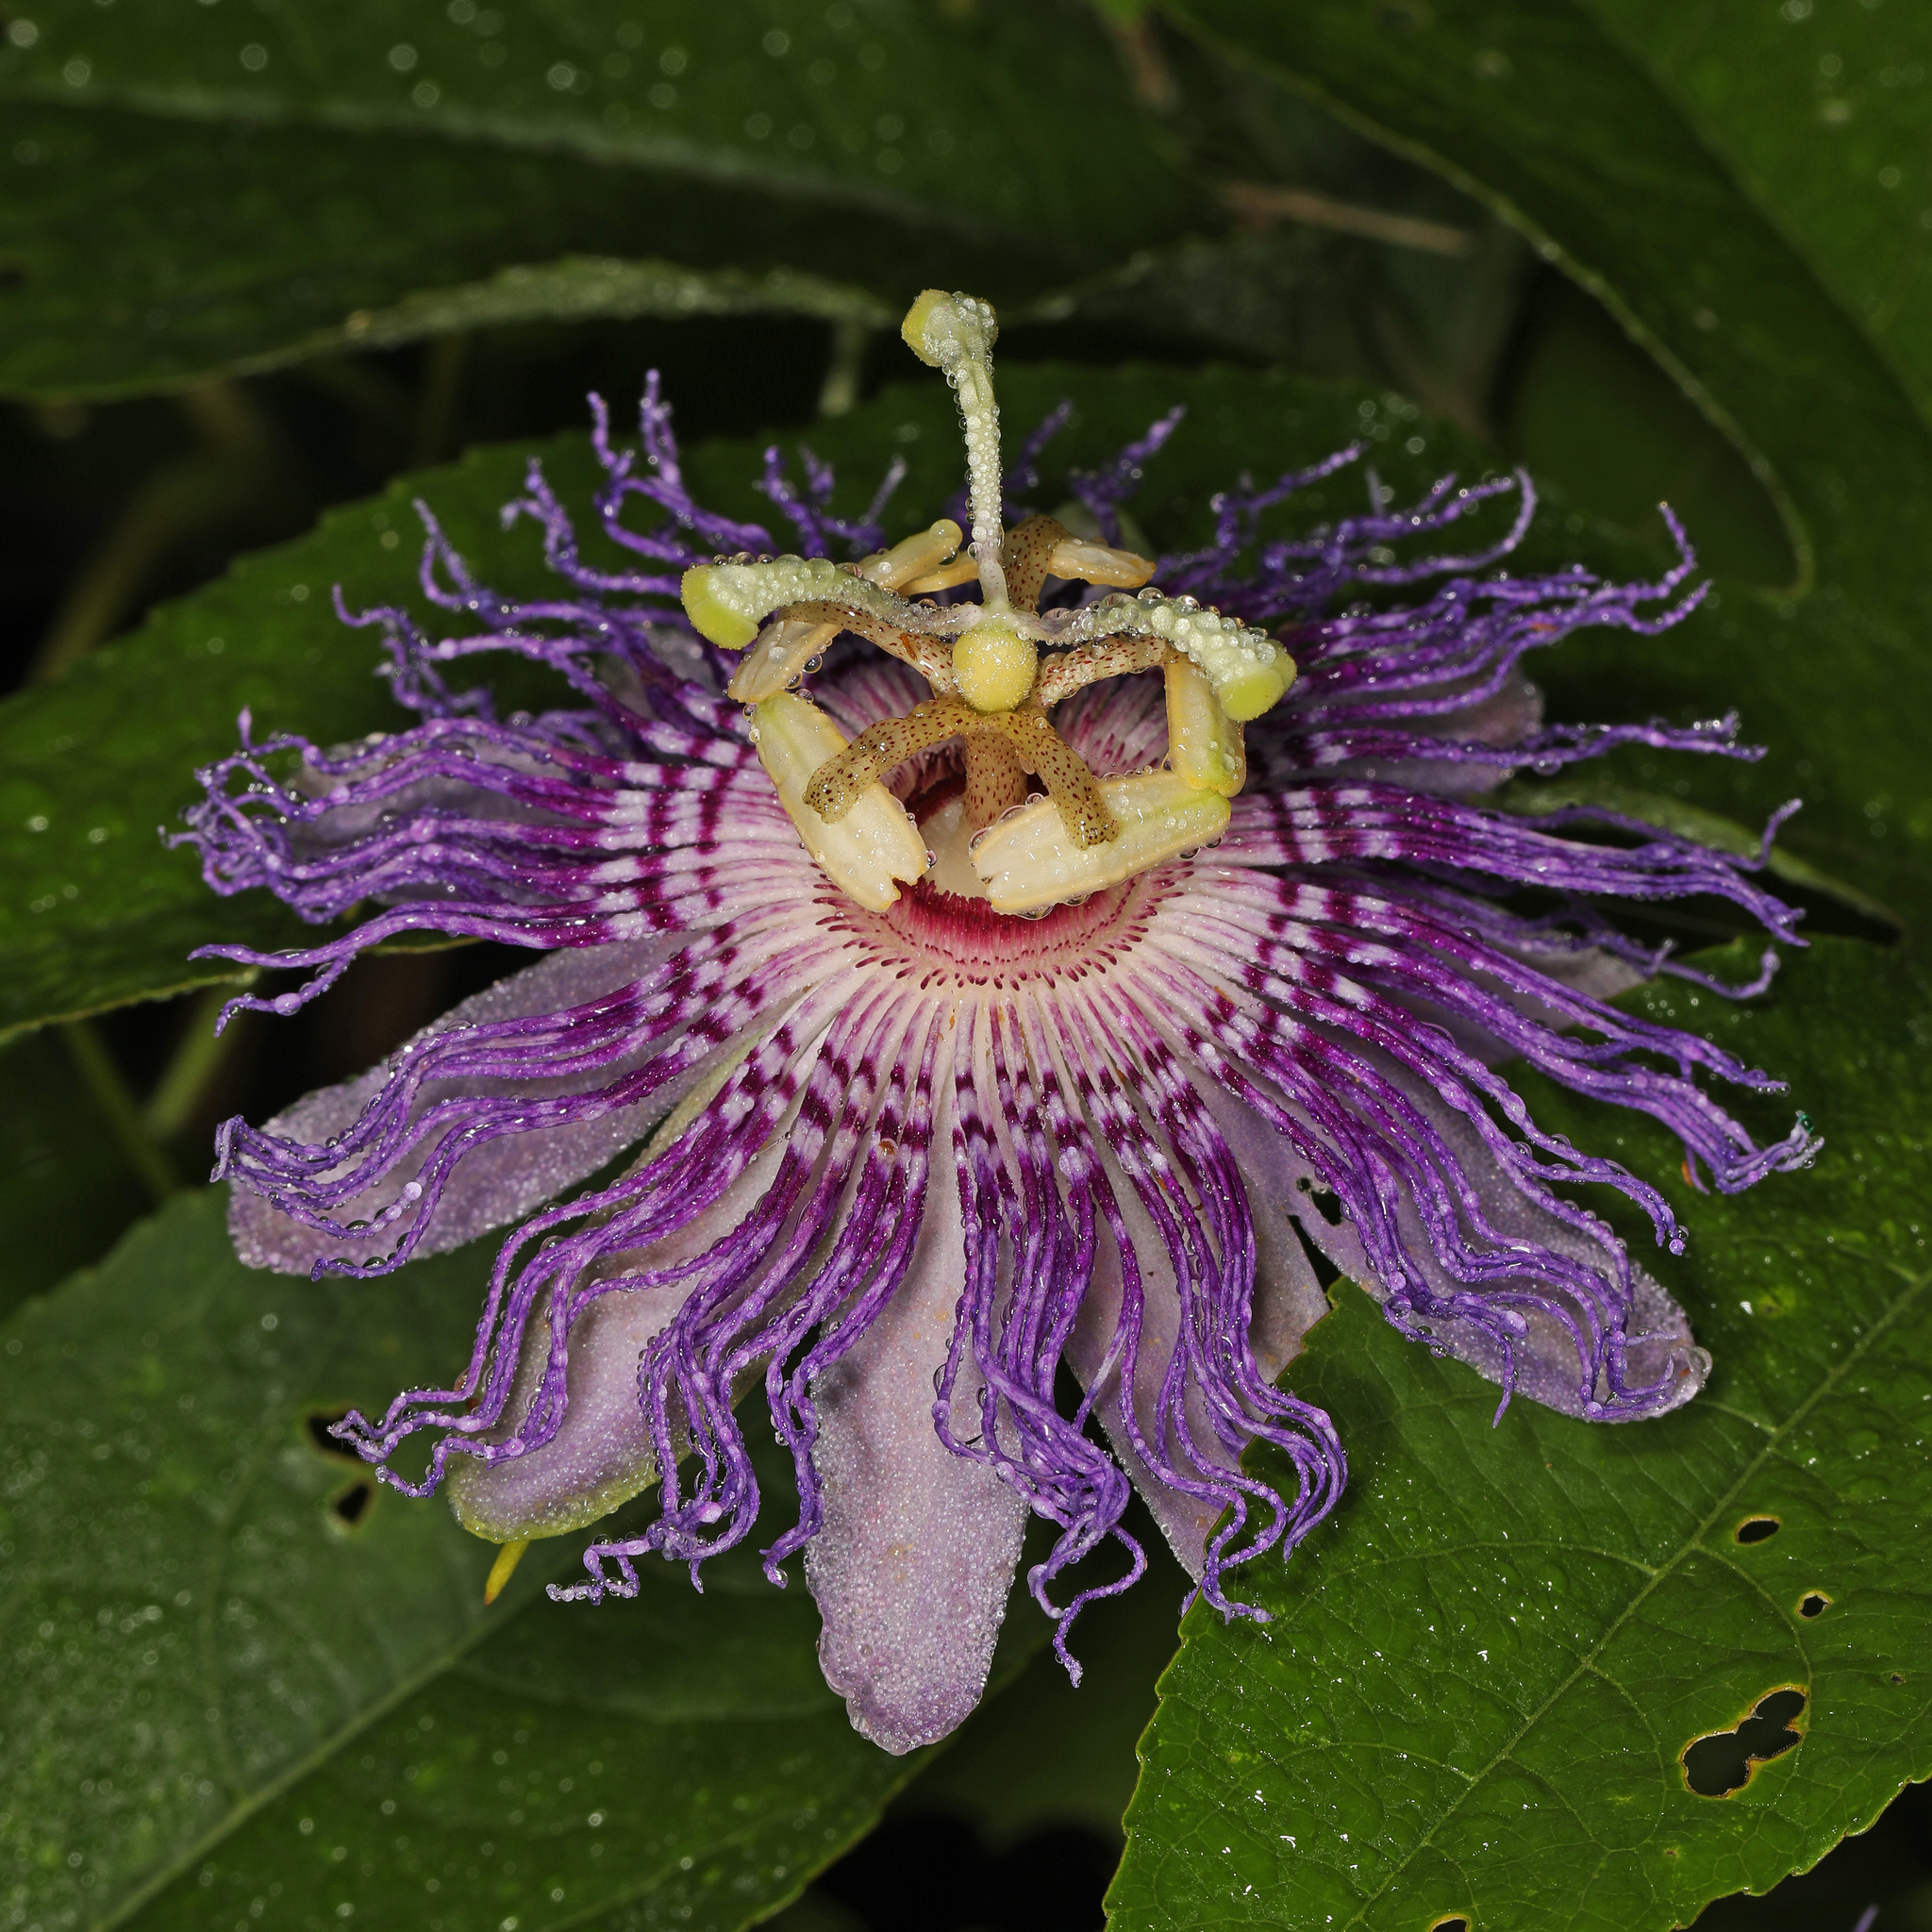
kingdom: Plantae
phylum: Tracheophyta
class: Magnoliopsida
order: Malpighiales
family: Passifloraceae
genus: Passiflora
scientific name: Passiflora incarnata
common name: Apricot-vine
